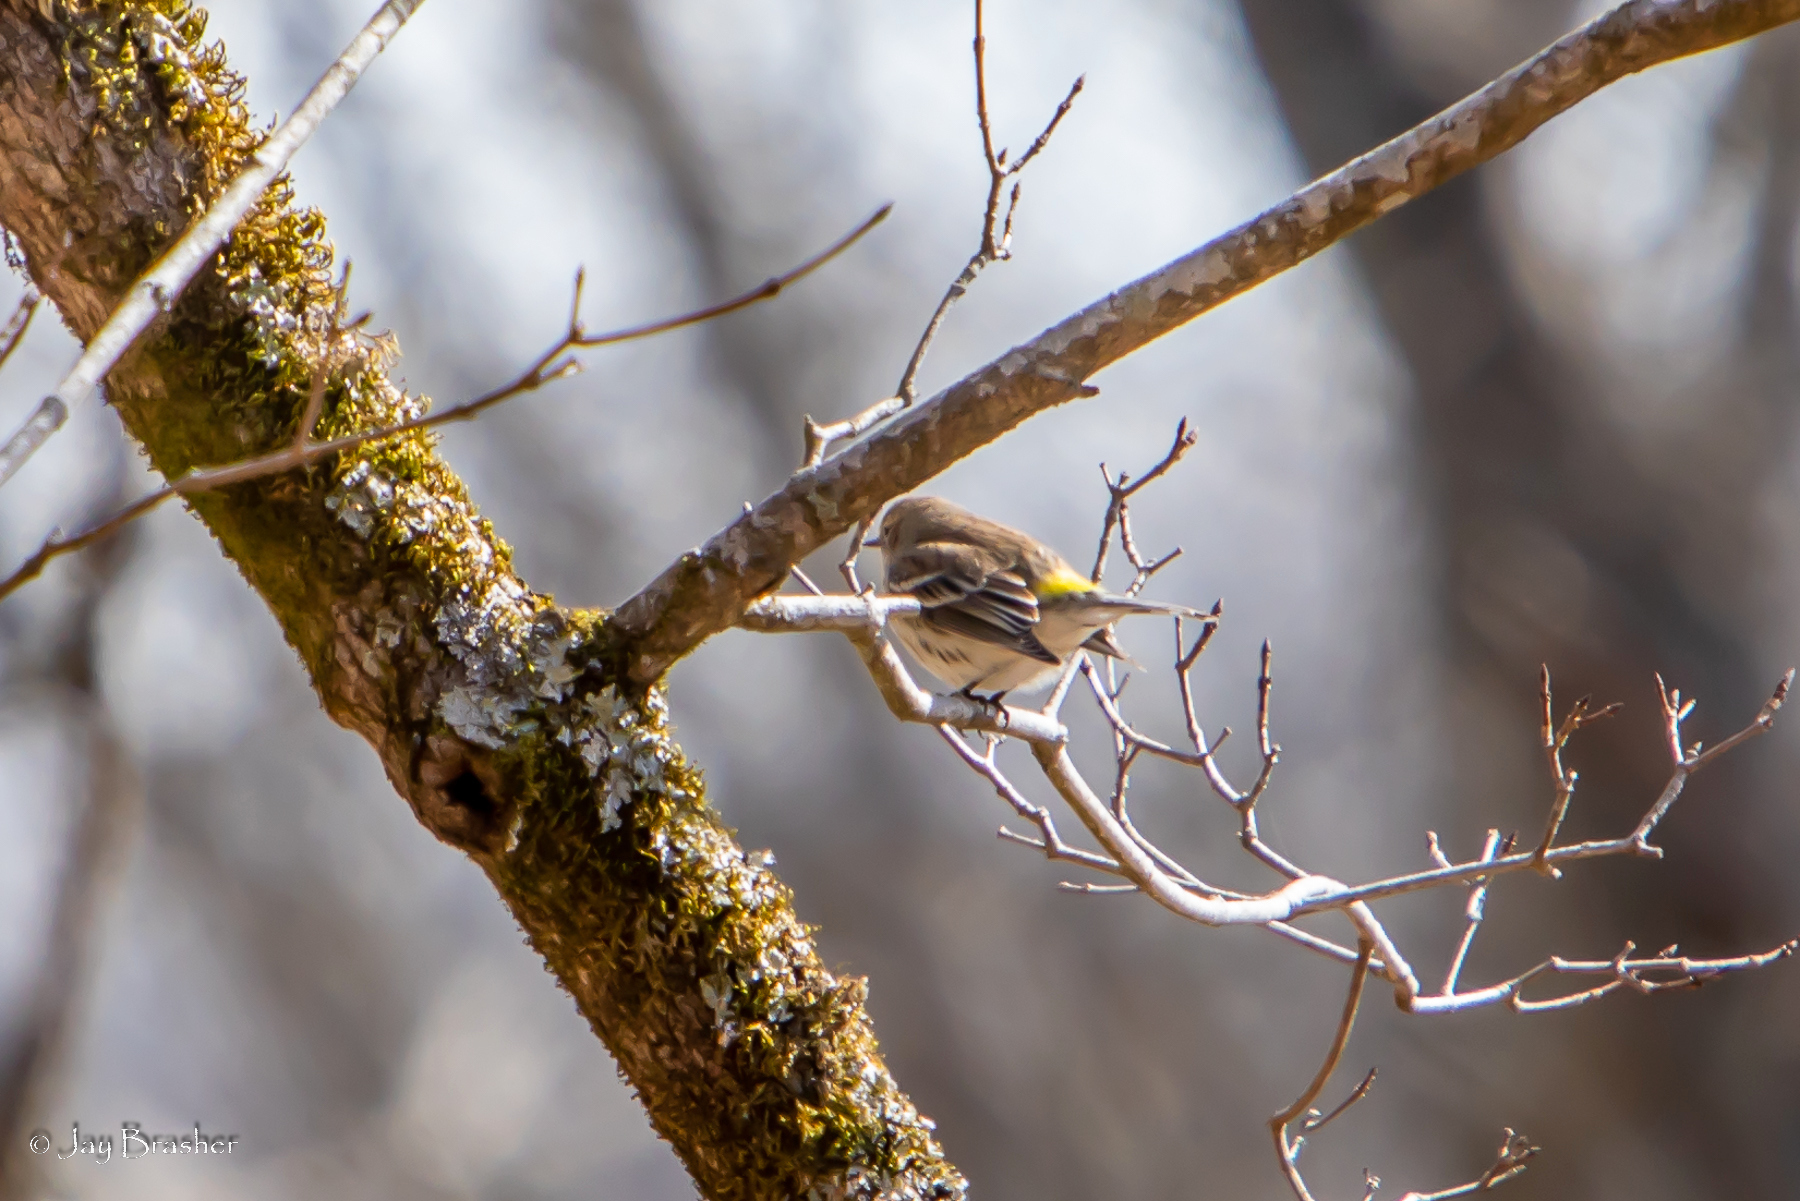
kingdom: Animalia
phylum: Chordata
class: Aves
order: Passeriformes
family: Parulidae
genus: Setophaga
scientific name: Setophaga coronata
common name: Myrtle warbler
